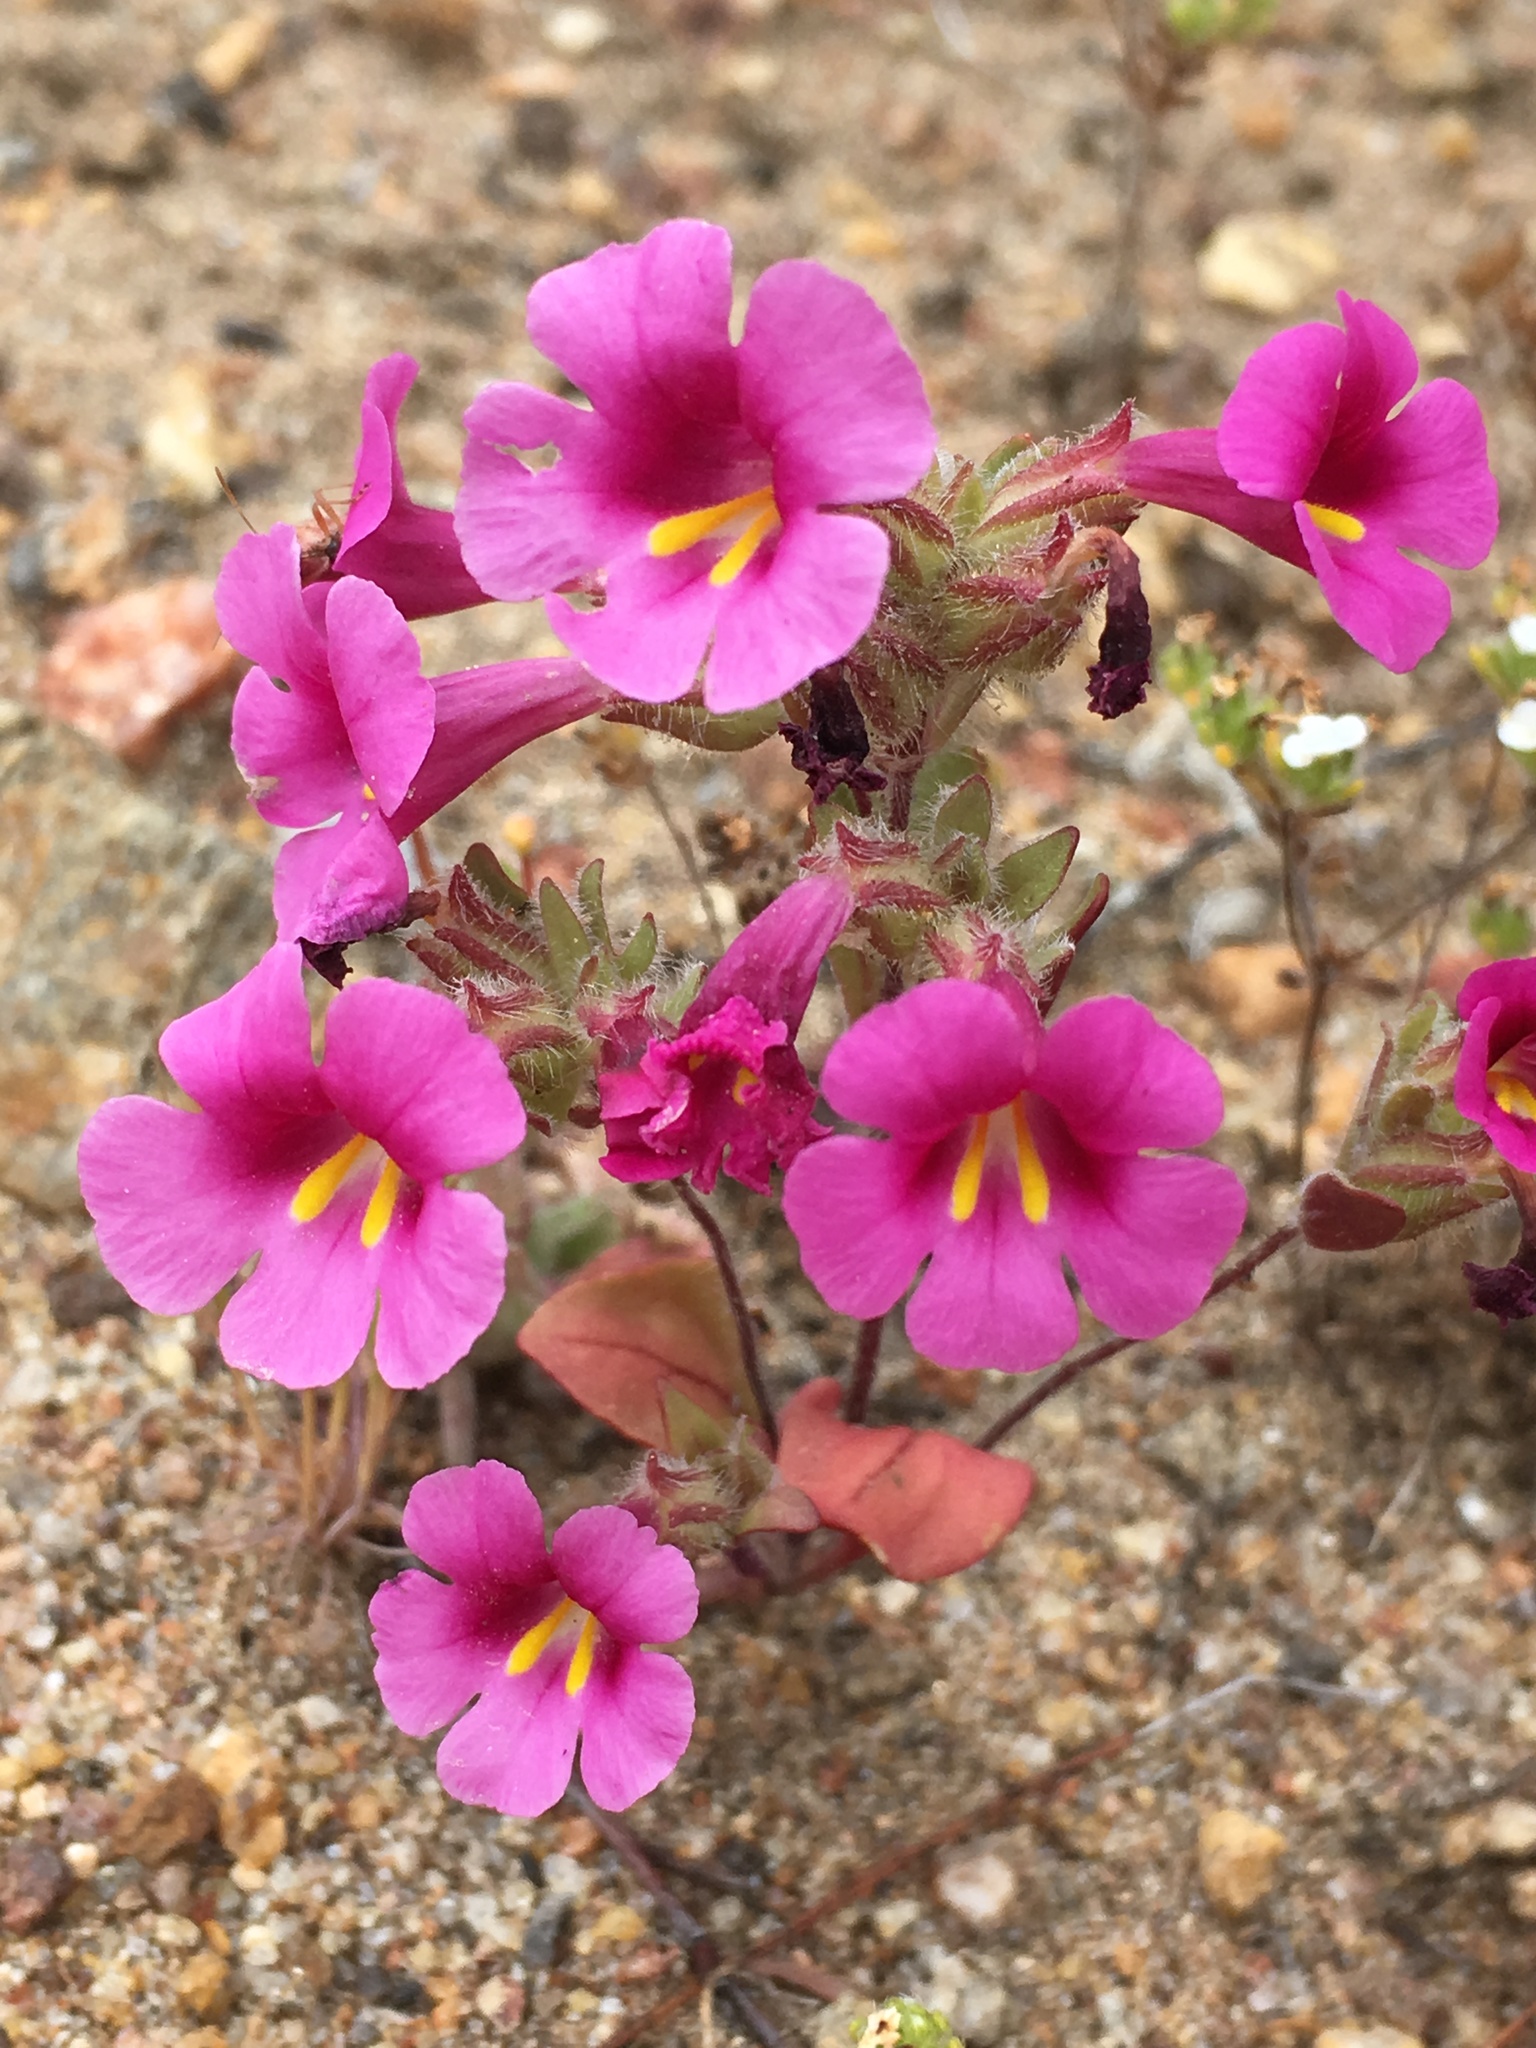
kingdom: Plantae
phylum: Tracheophyta
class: Magnoliopsida
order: Lamiales
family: Phrymaceae
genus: Diplacus
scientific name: Diplacus fremontii
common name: Fremont's monkey-flower
